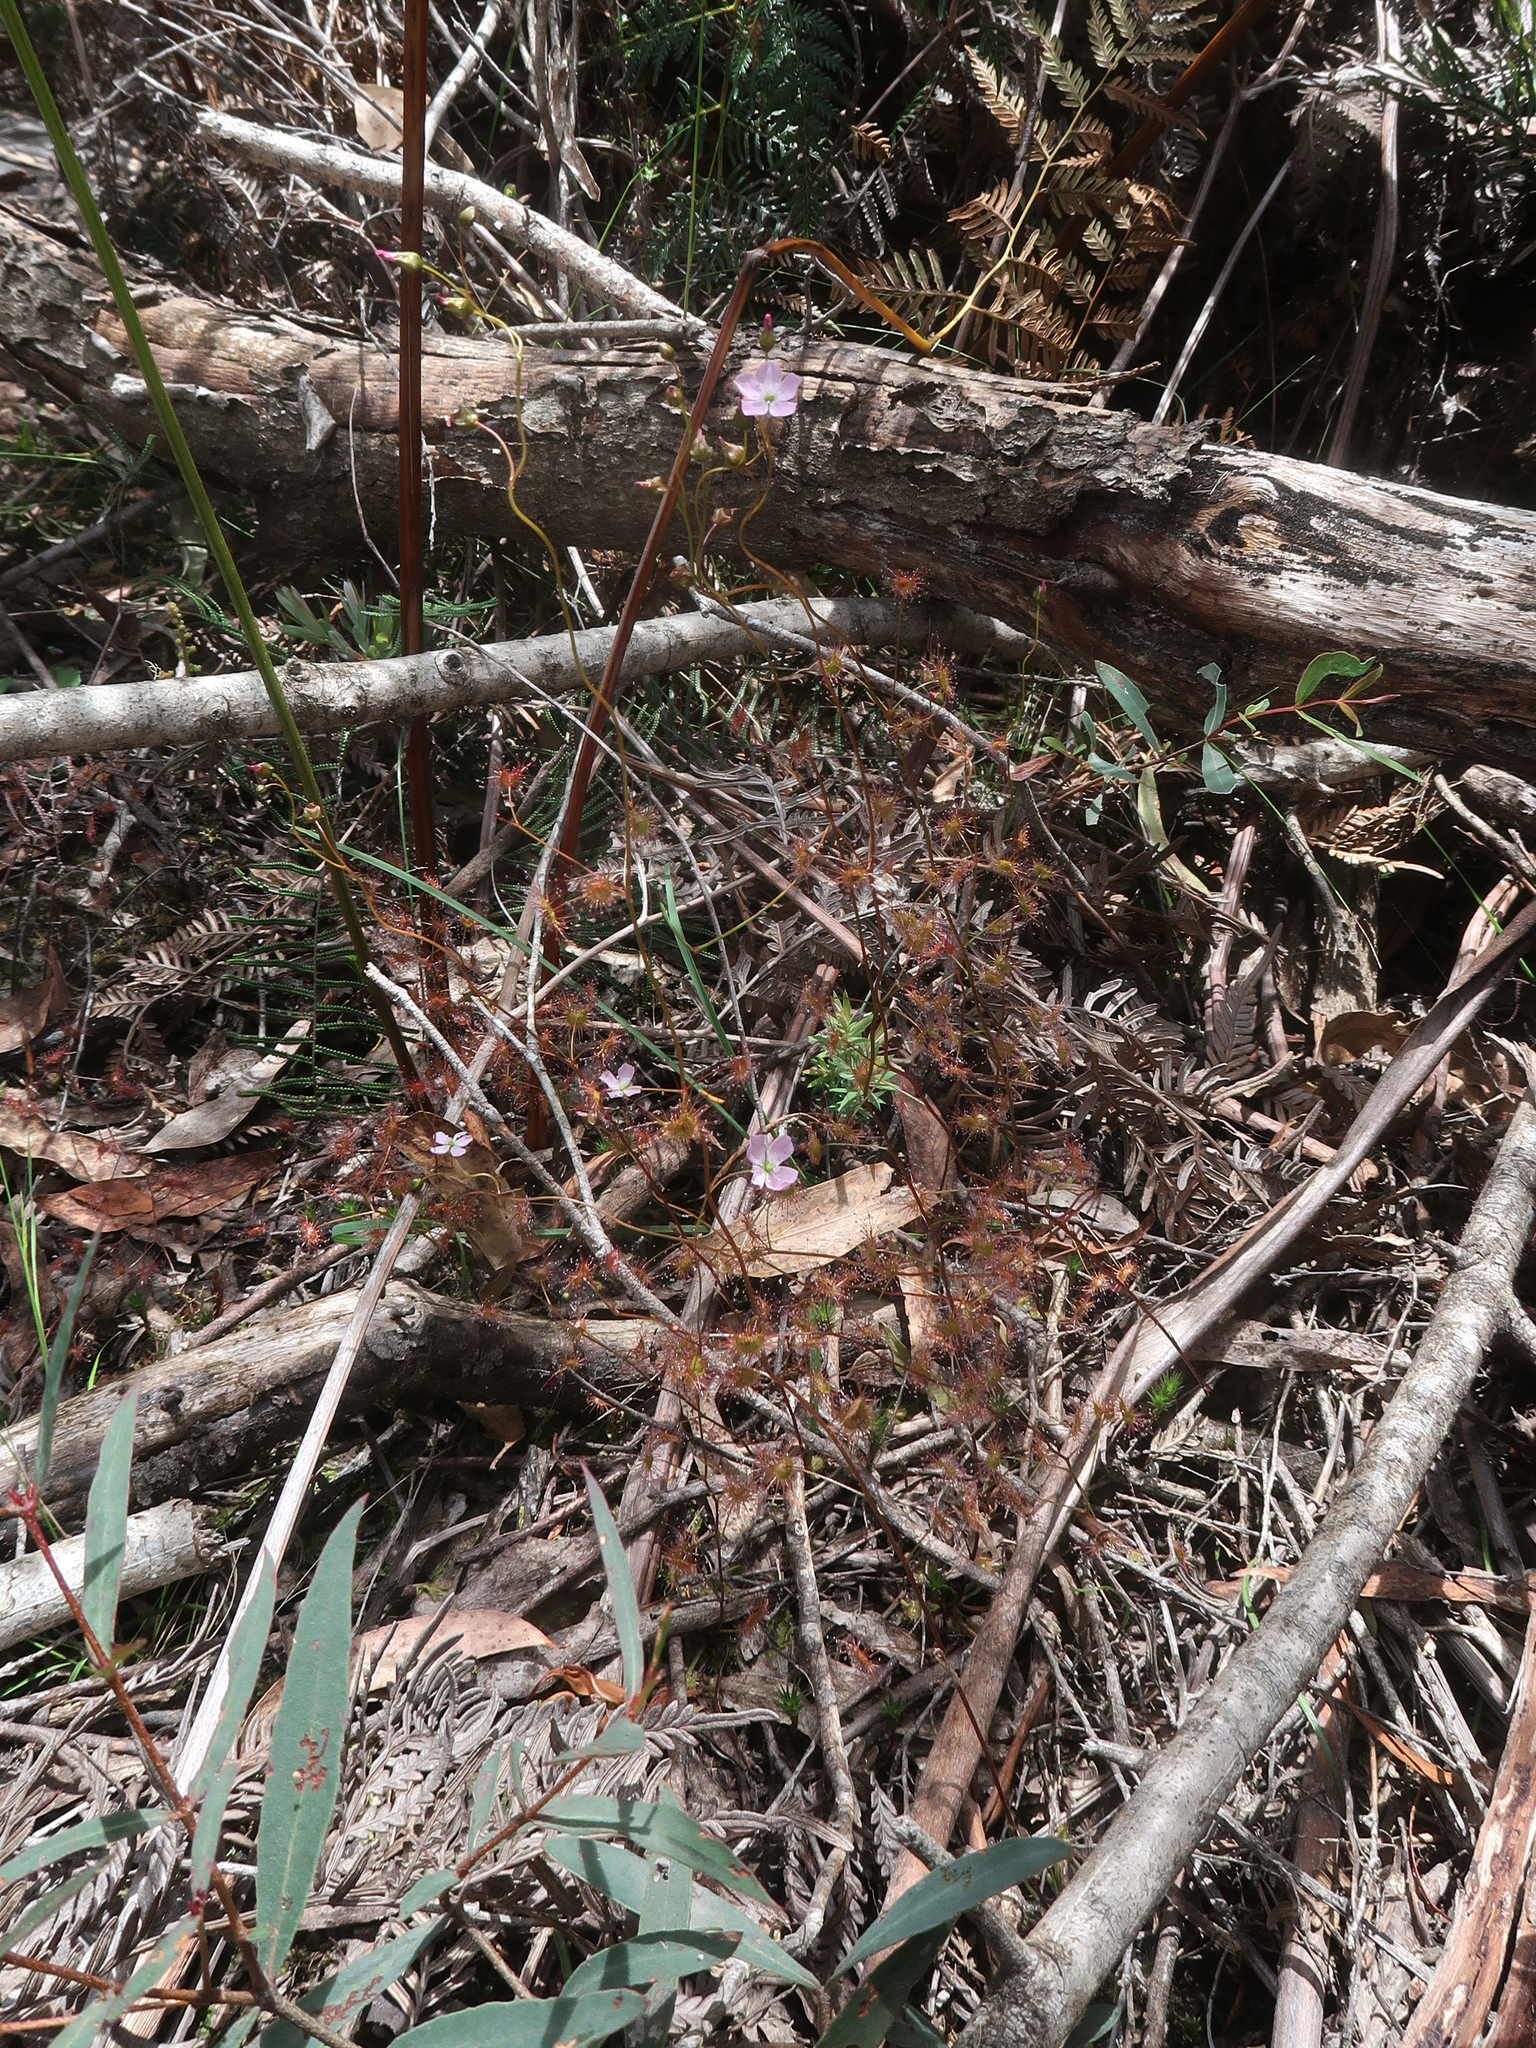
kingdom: Plantae
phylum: Tracheophyta
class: Magnoliopsida
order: Caryophyllales
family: Droseraceae
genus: Drosera
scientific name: Drosera peltata
